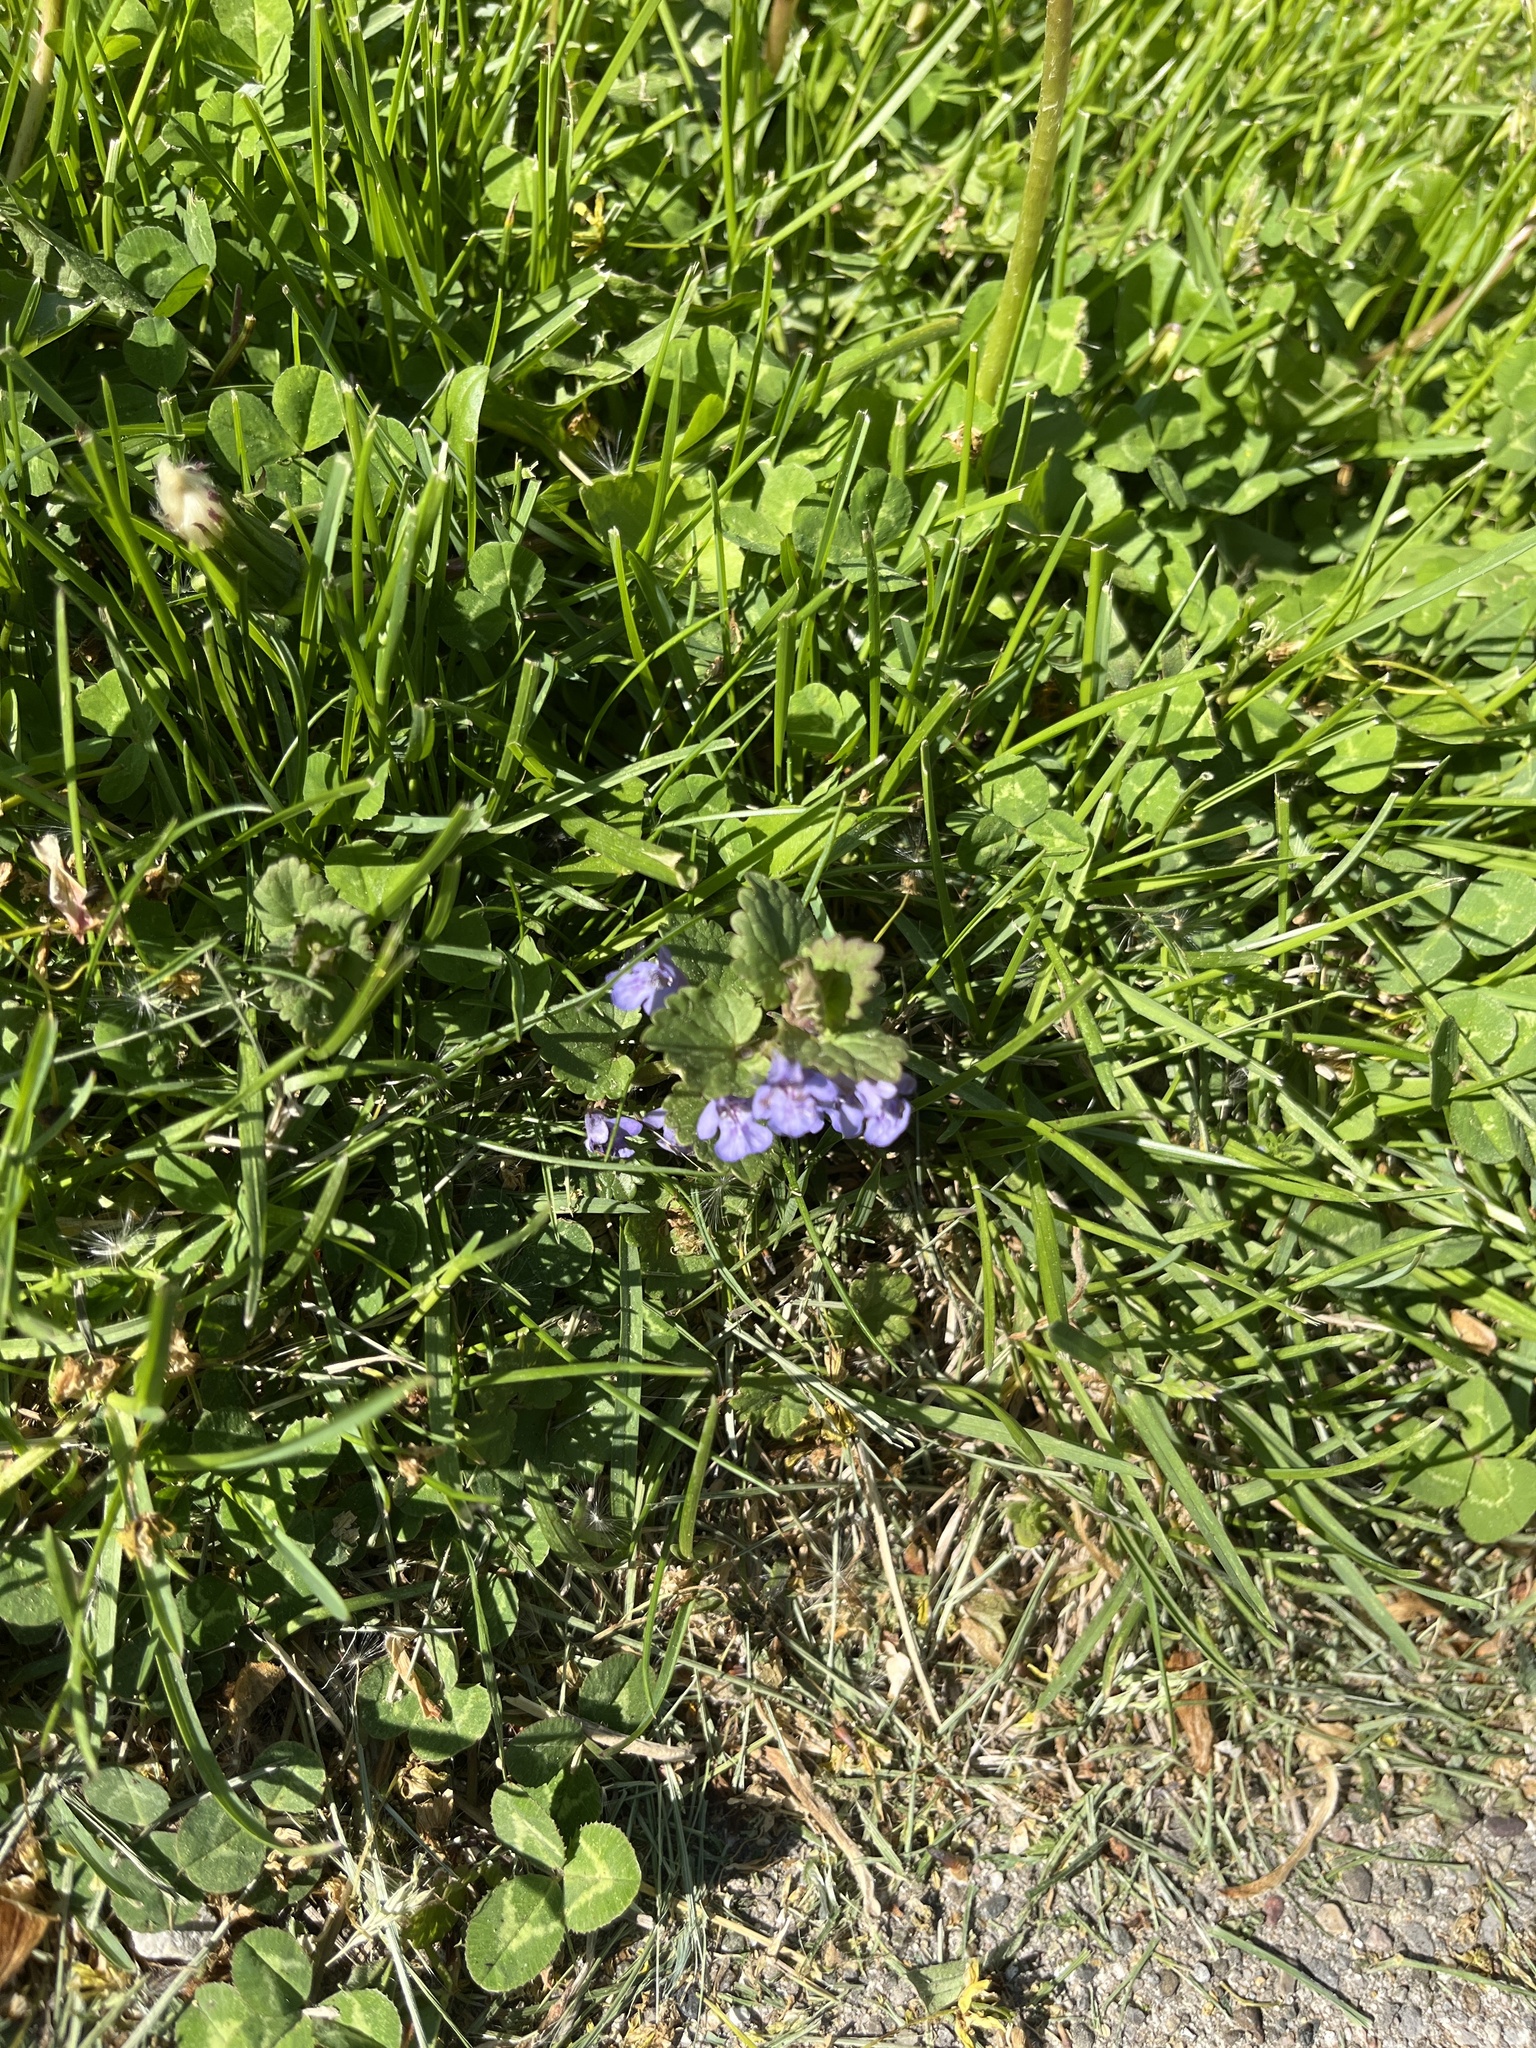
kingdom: Plantae
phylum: Tracheophyta
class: Magnoliopsida
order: Lamiales
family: Lamiaceae
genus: Glechoma
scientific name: Glechoma hederacea
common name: Ground ivy
